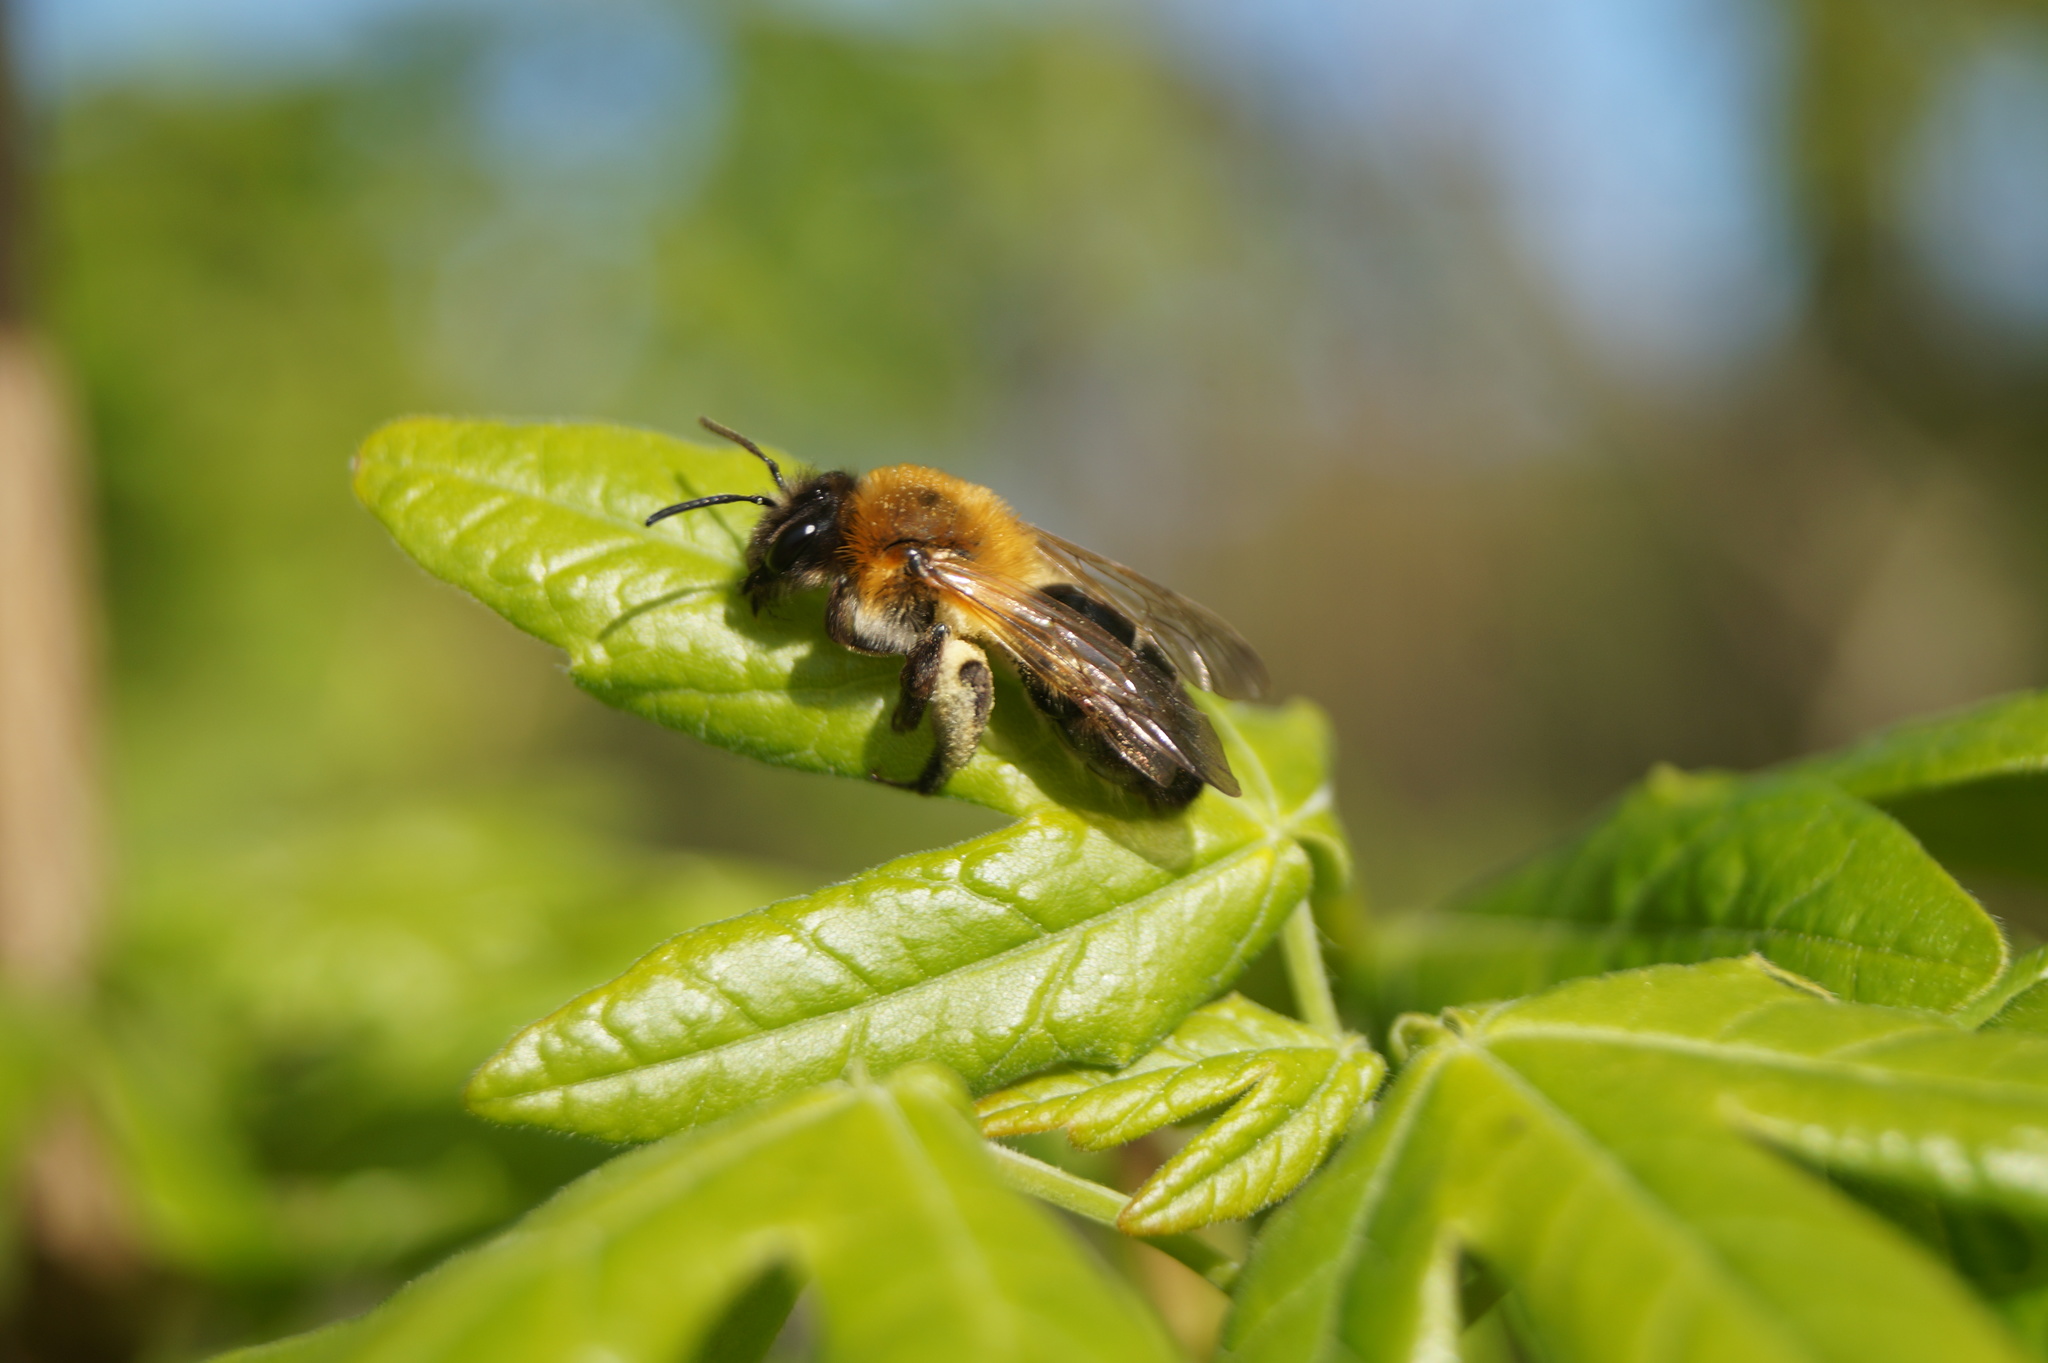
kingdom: Animalia
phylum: Arthropoda
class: Insecta
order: Hymenoptera
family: Andrenidae
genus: Andrena
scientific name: Andrena nitida
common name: Grey-patched mining bee
